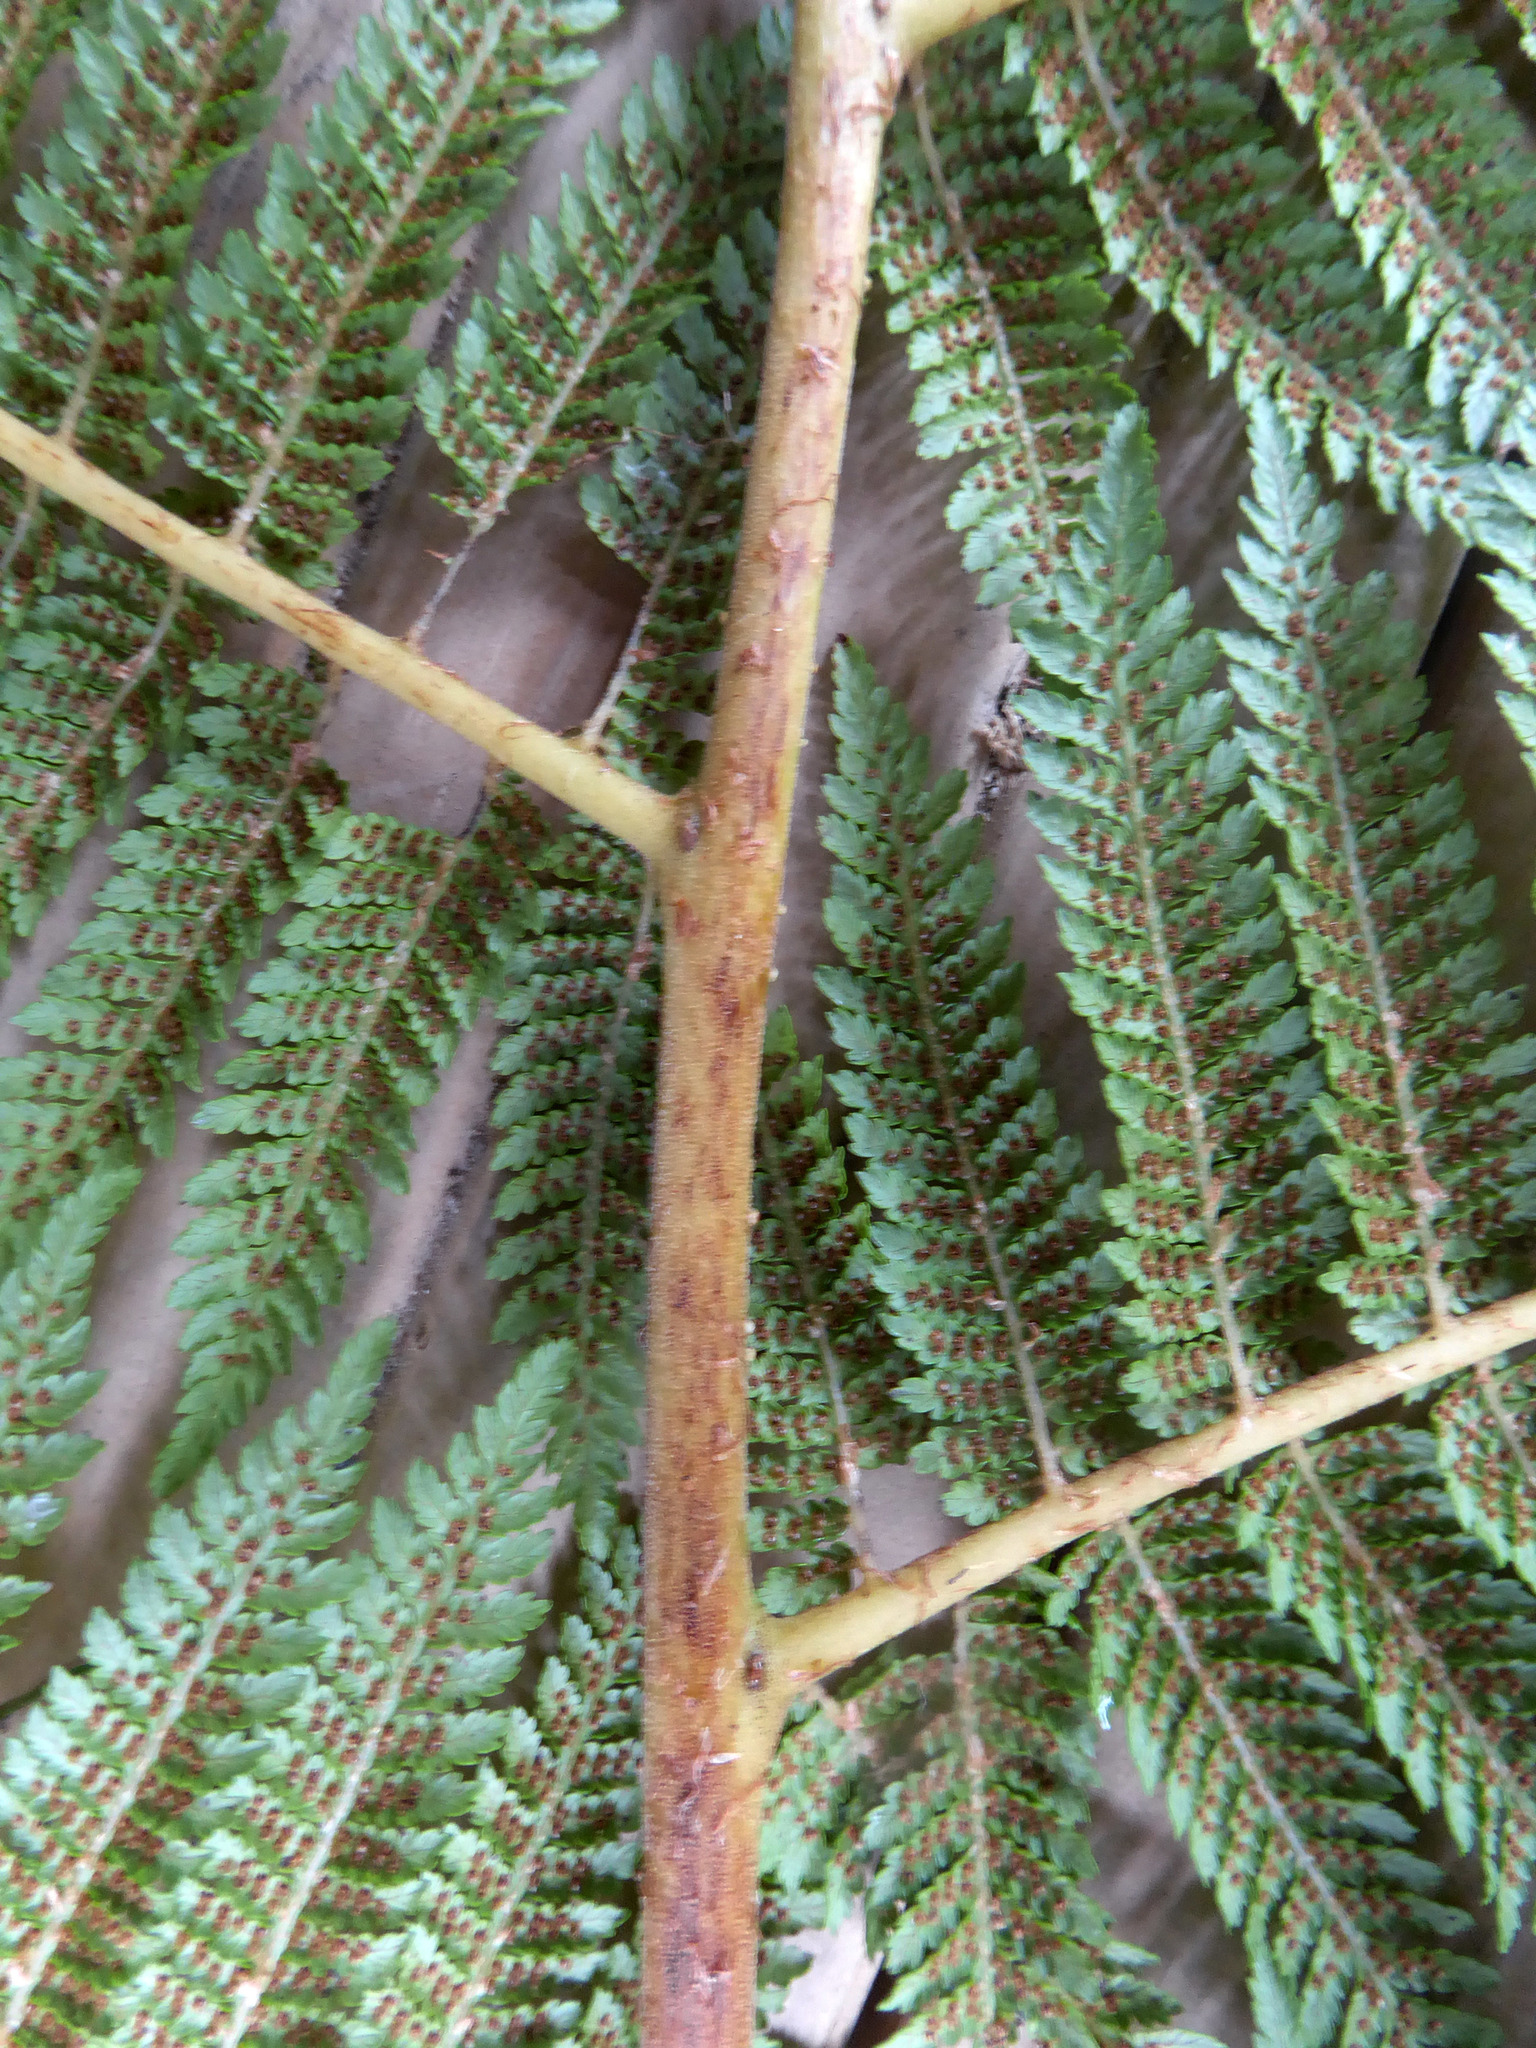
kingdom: Plantae
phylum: Tracheophyta
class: Polypodiopsida
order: Cyatheales
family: Cyatheaceae
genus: Cyathea
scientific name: Cyathea cunninghamii
